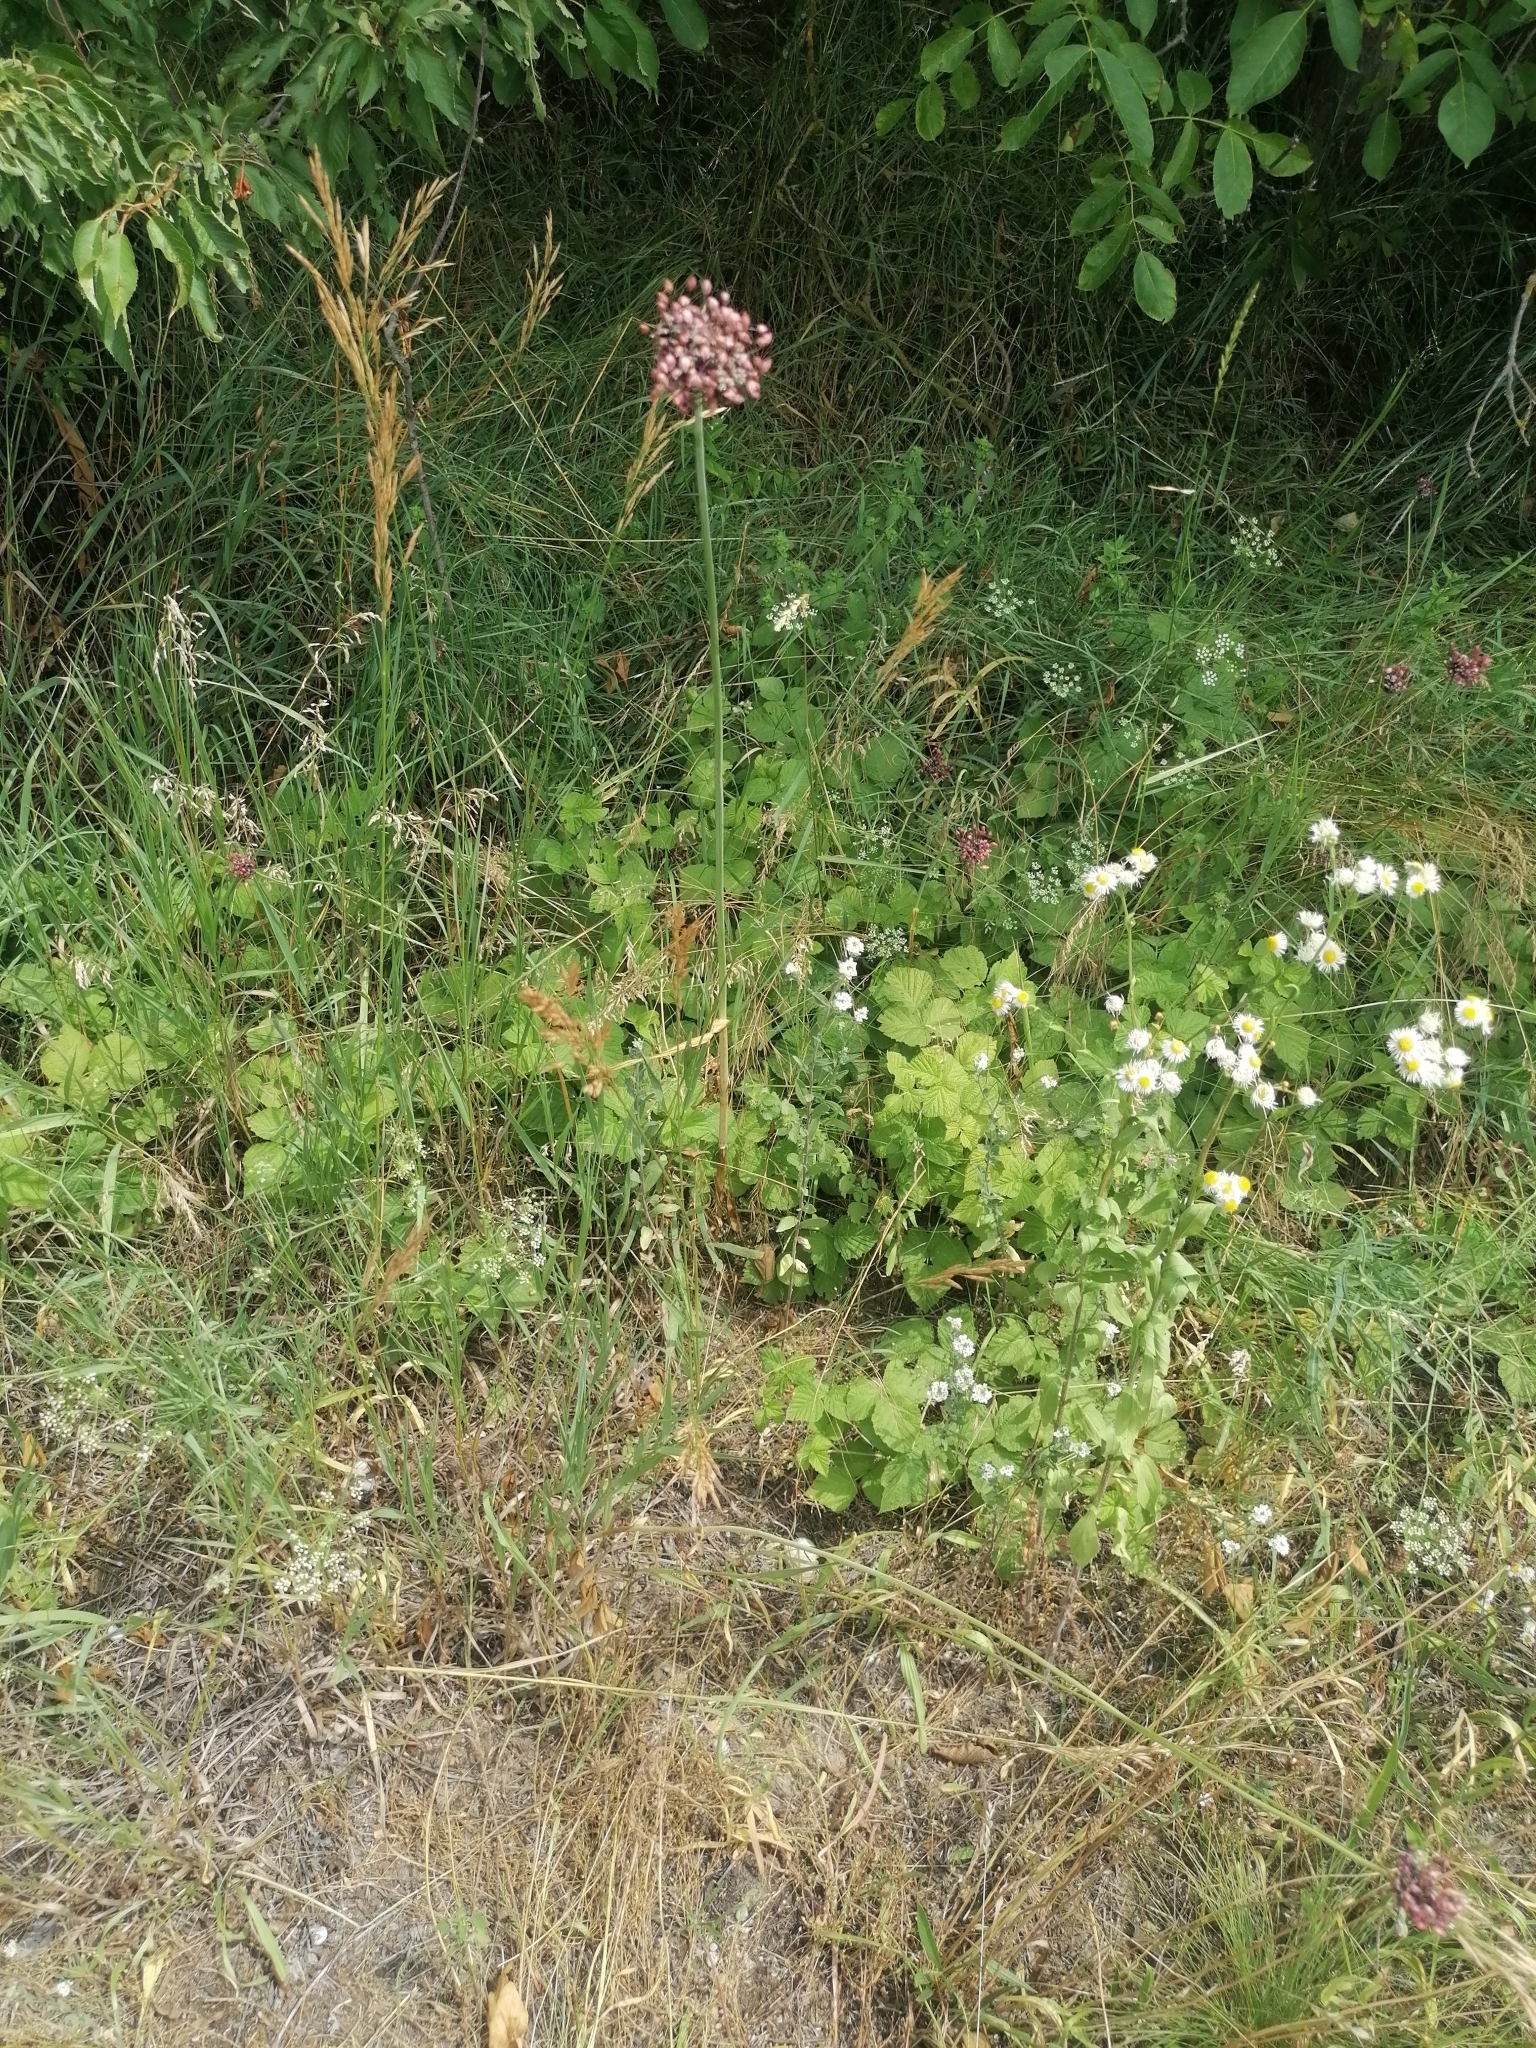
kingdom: Plantae
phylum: Tracheophyta
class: Liliopsida
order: Asparagales
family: Amaryllidaceae
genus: Allium
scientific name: Allium scorodoprasum
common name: Sand leek
